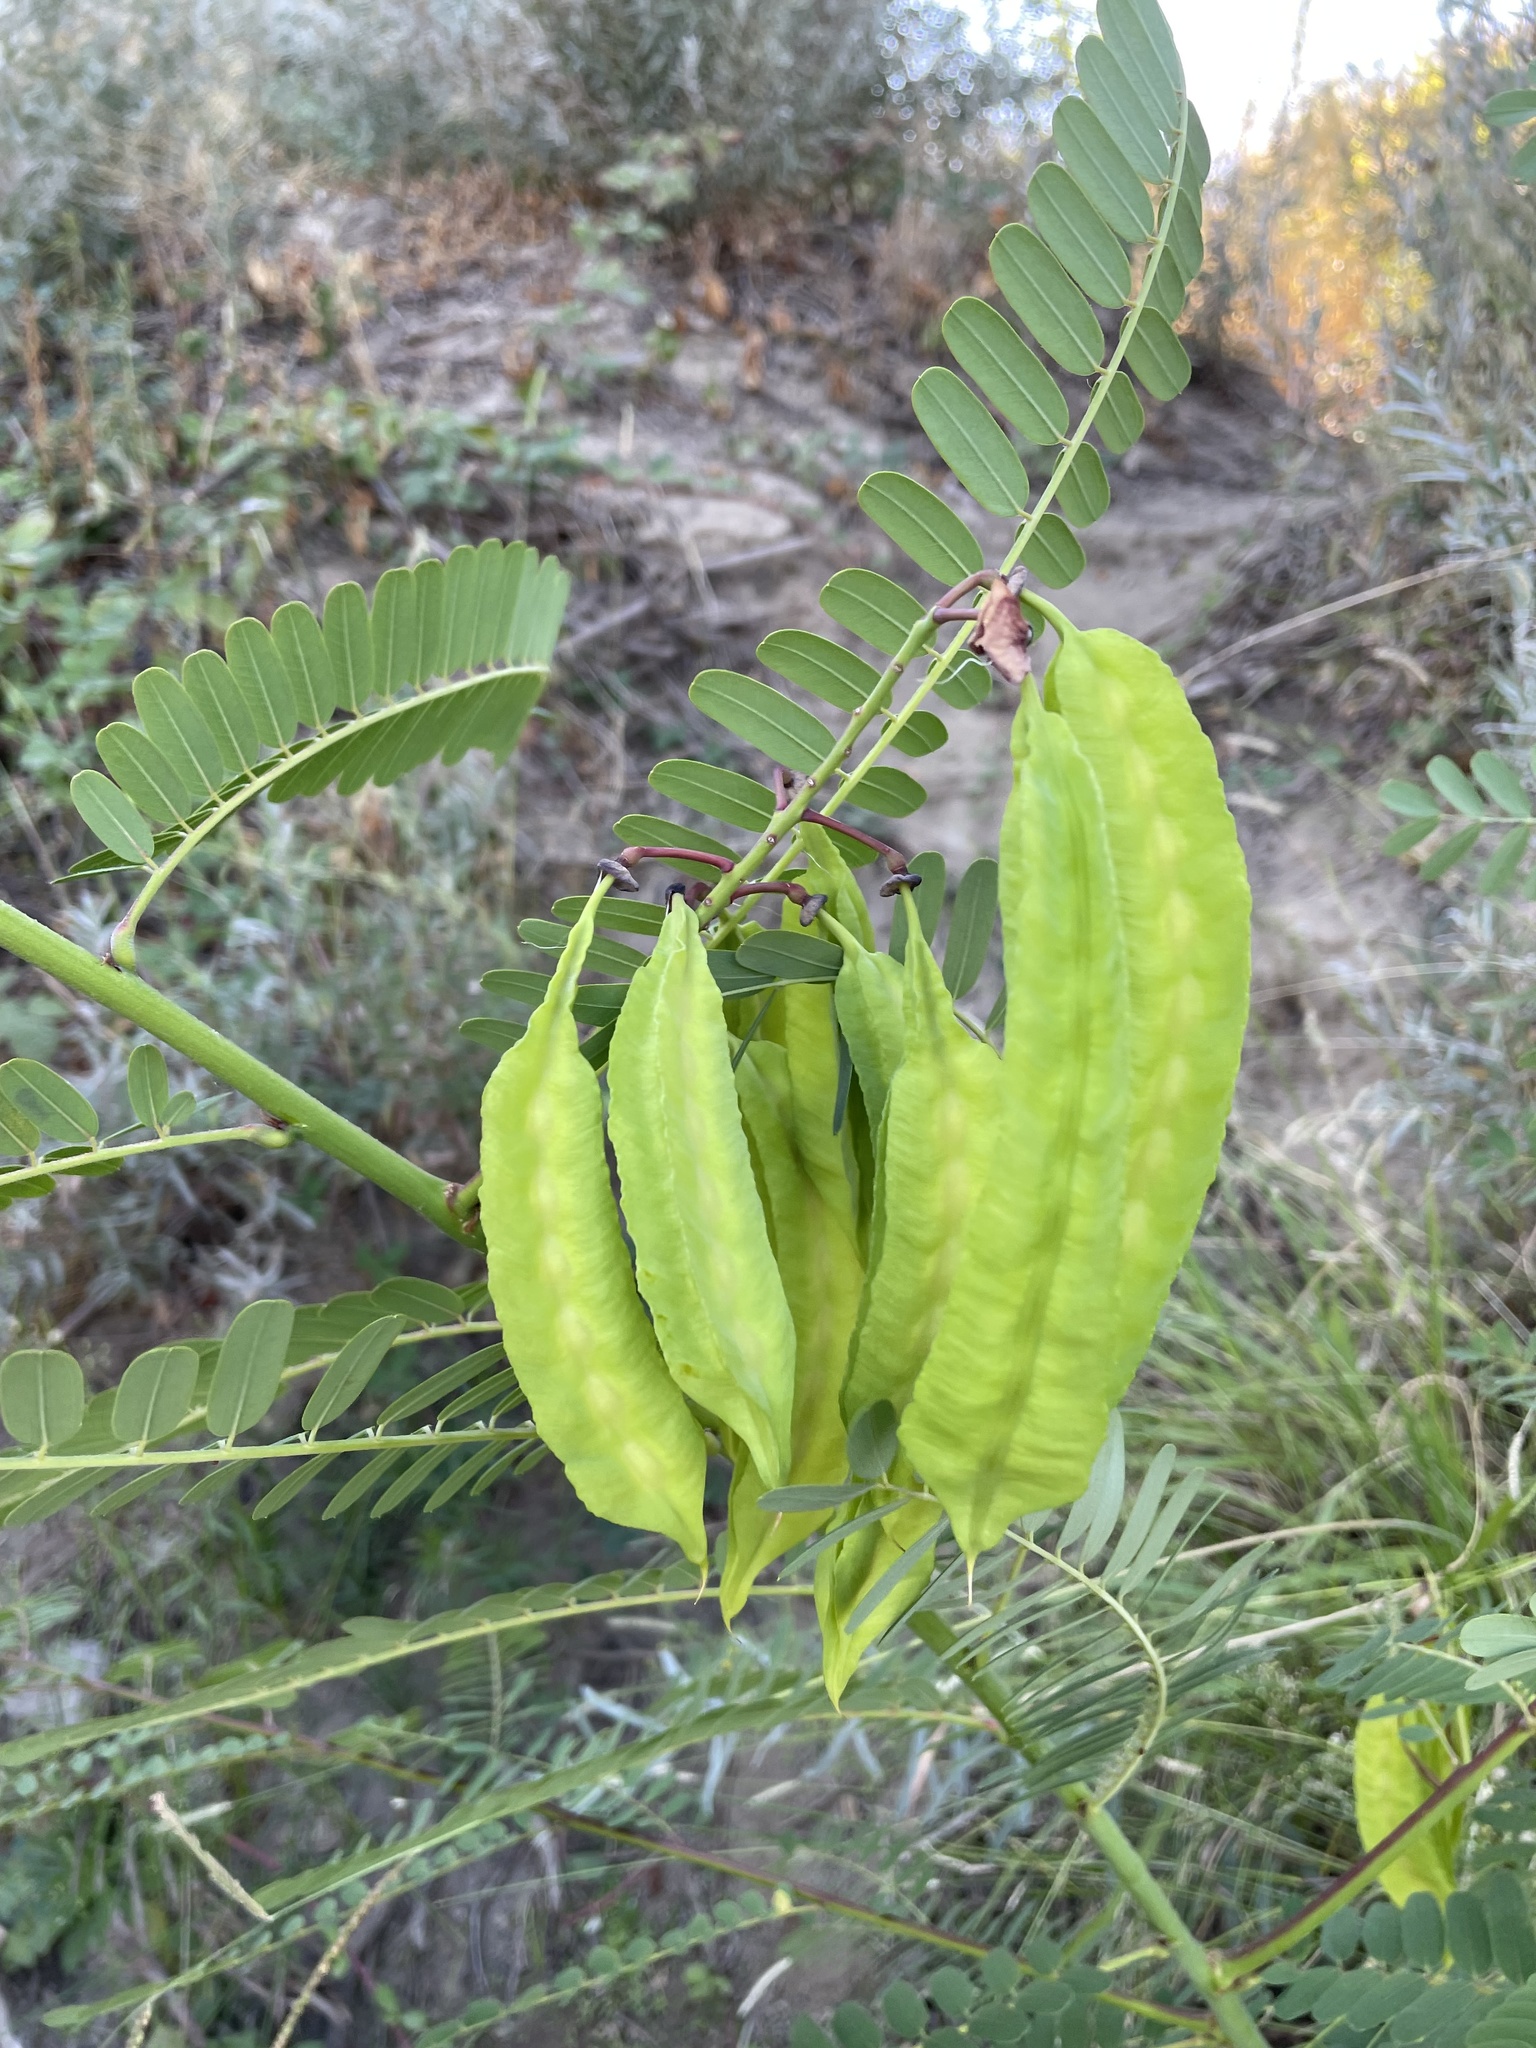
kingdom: Plantae
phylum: Tracheophyta
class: Magnoliopsida
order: Fabales
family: Fabaceae
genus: Sesbania
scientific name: Sesbania punicea
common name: Rattlebox
